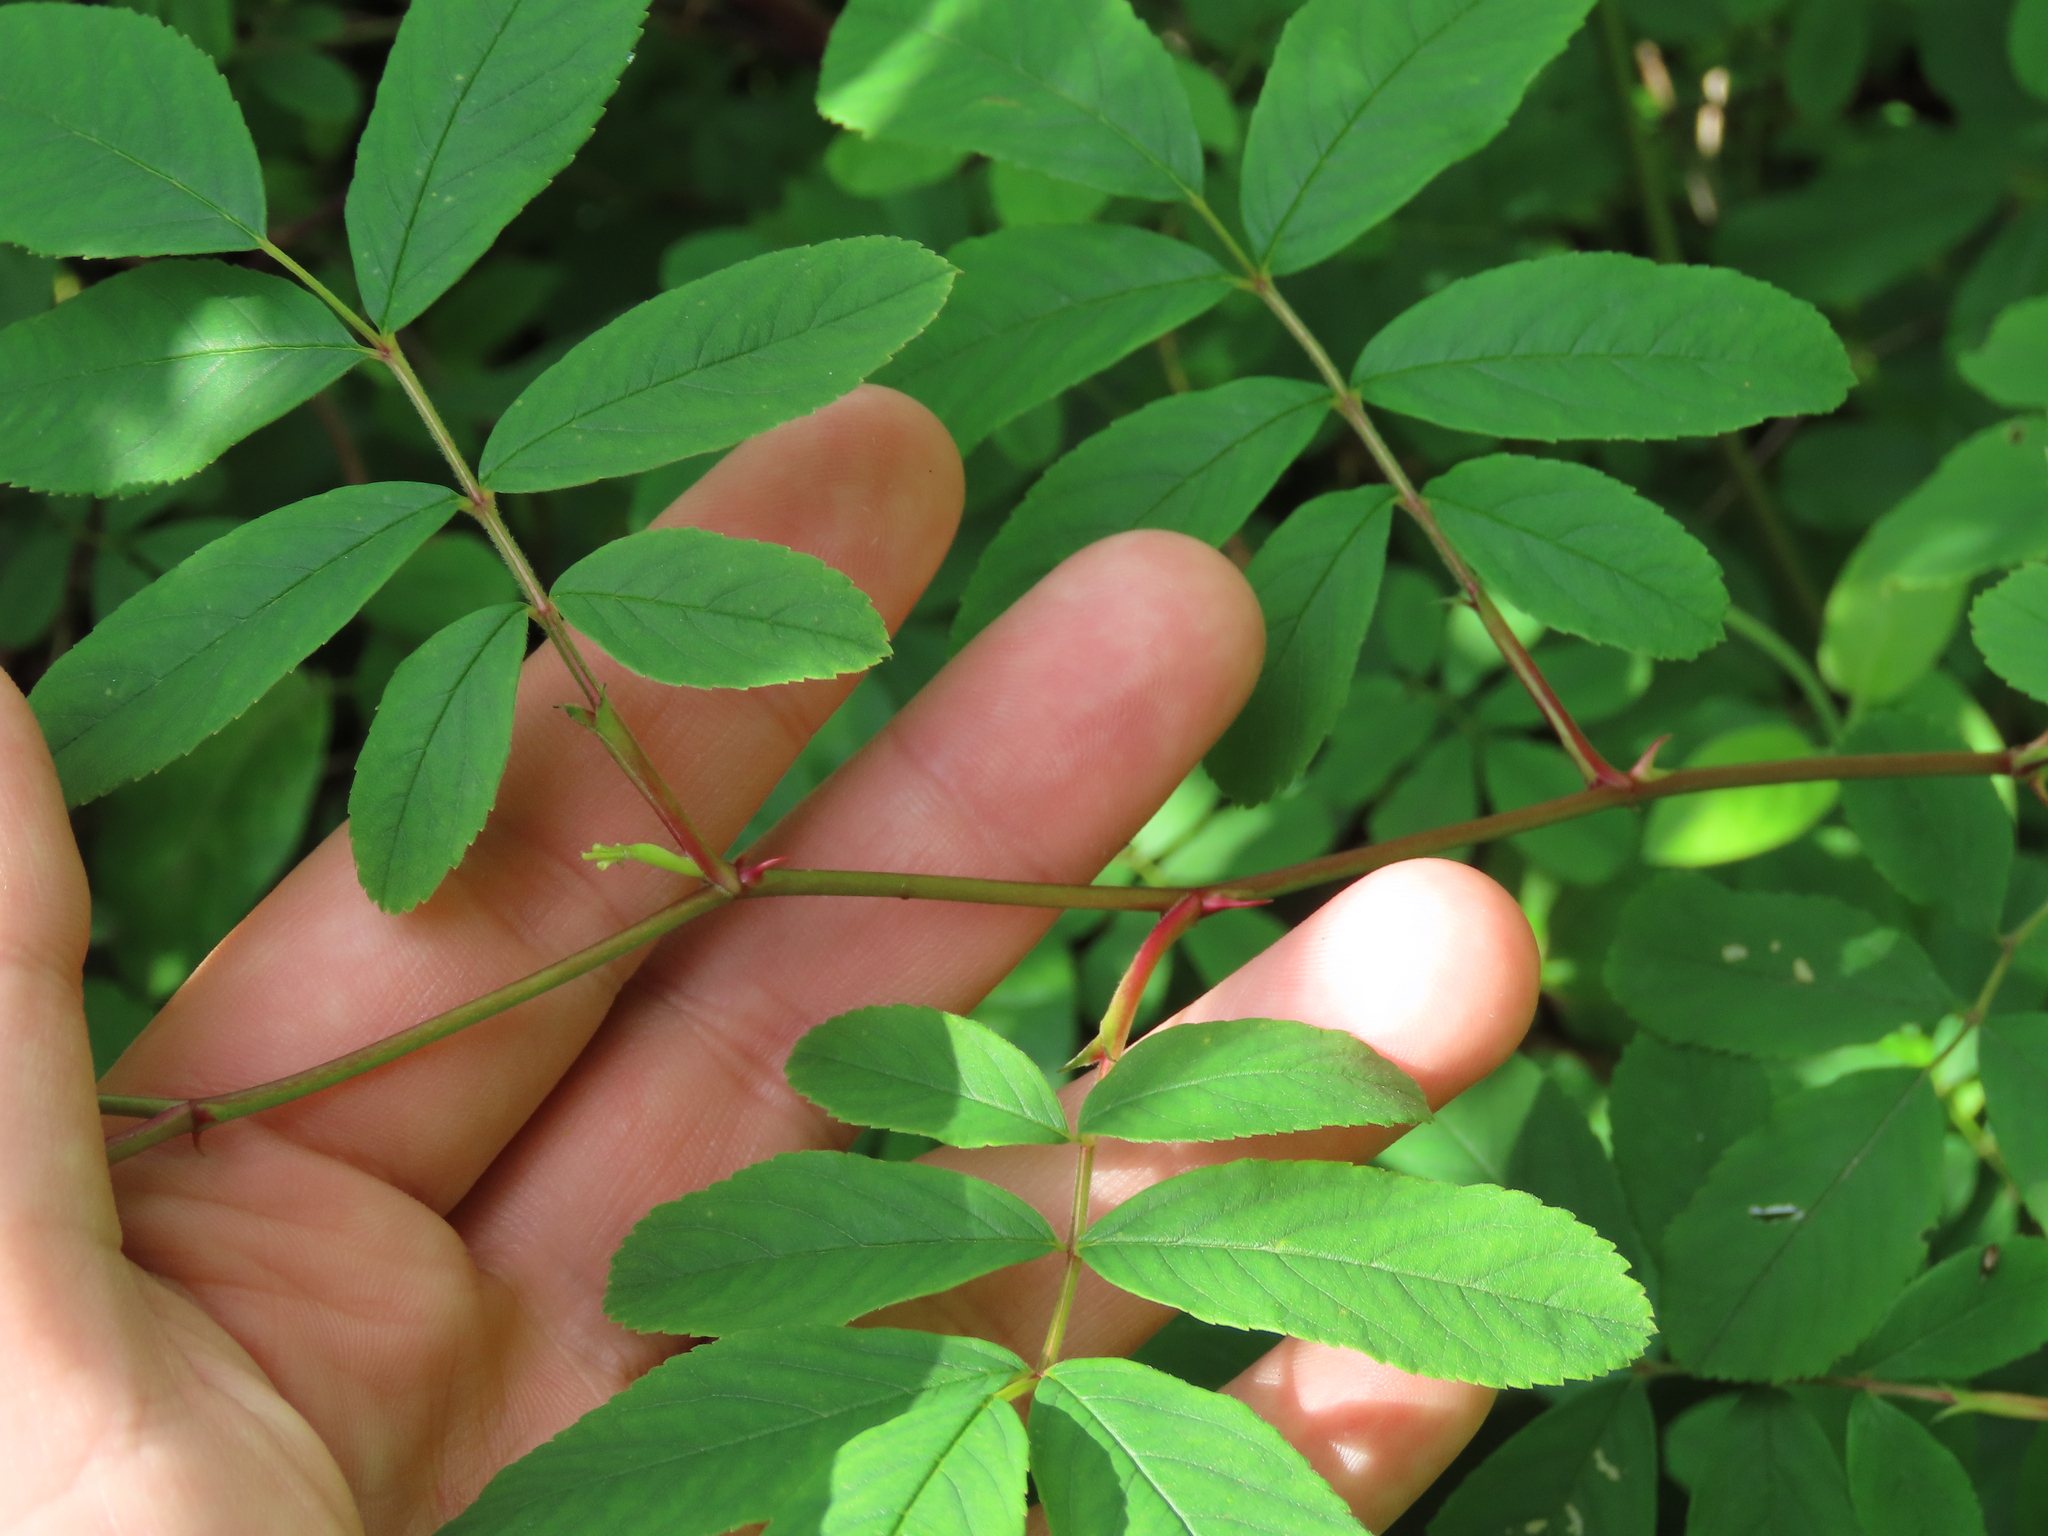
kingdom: Plantae
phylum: Tracheophyta
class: Magnoliopsida
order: Rosales
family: Rosaceae
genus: Rosa
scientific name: Rosa palustris
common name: Swamp rose
